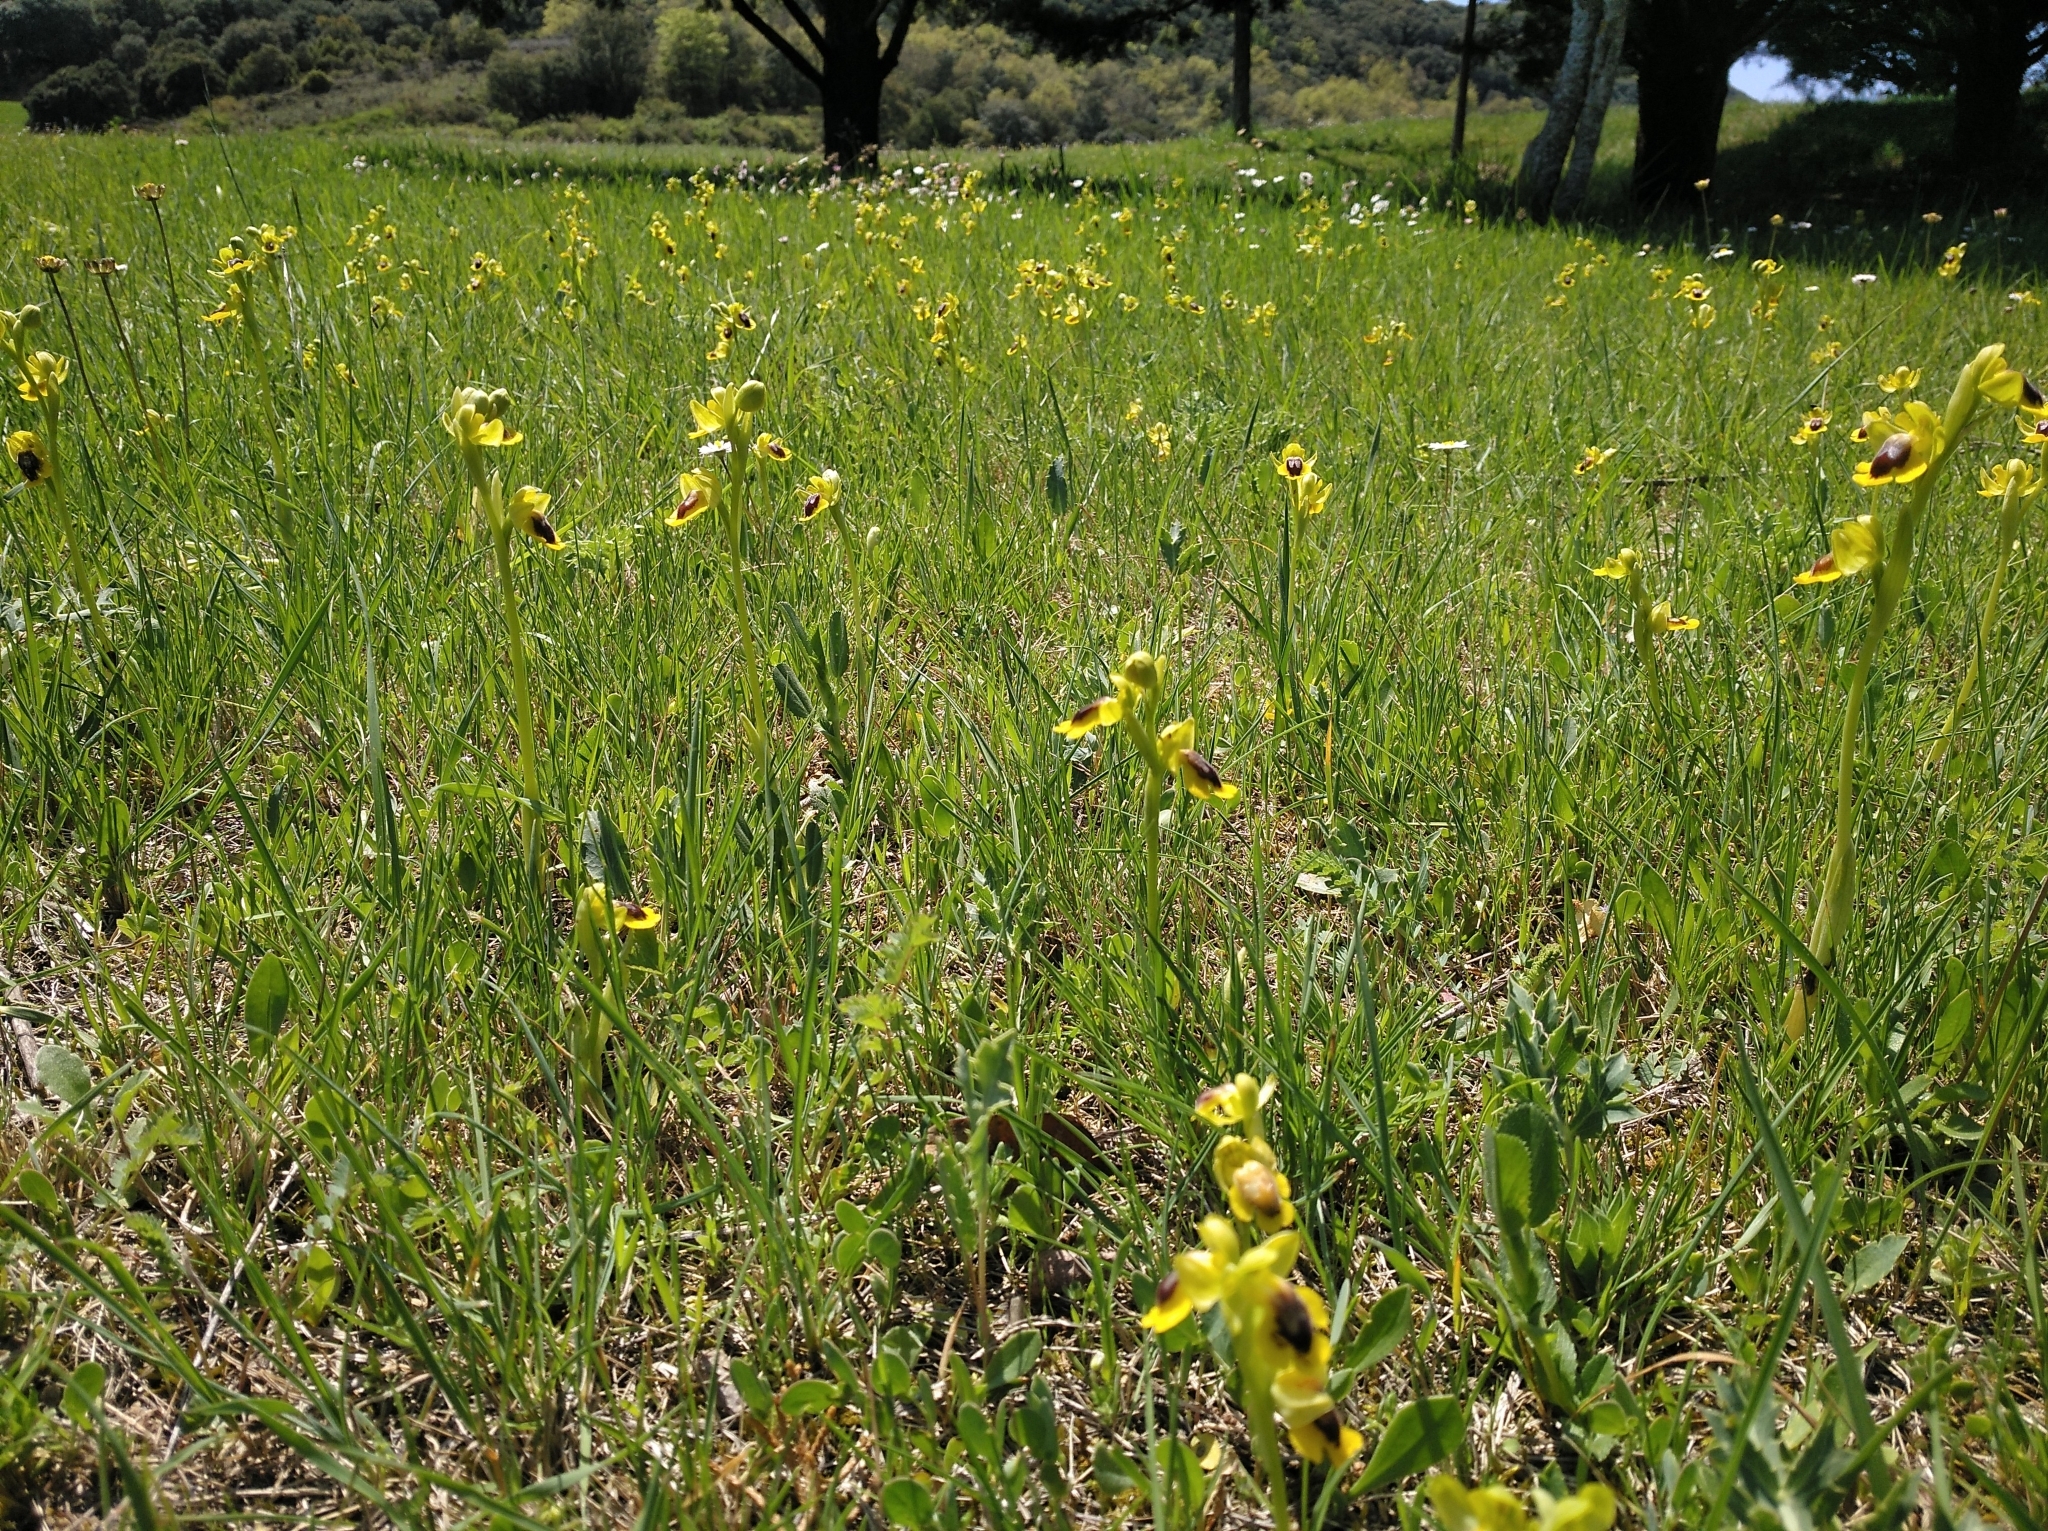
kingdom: Plantae
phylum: Tracheophyta
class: Liliopsida
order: Asparagales
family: Orchidaceae
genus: Ophrys
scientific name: Ophrys lutea
